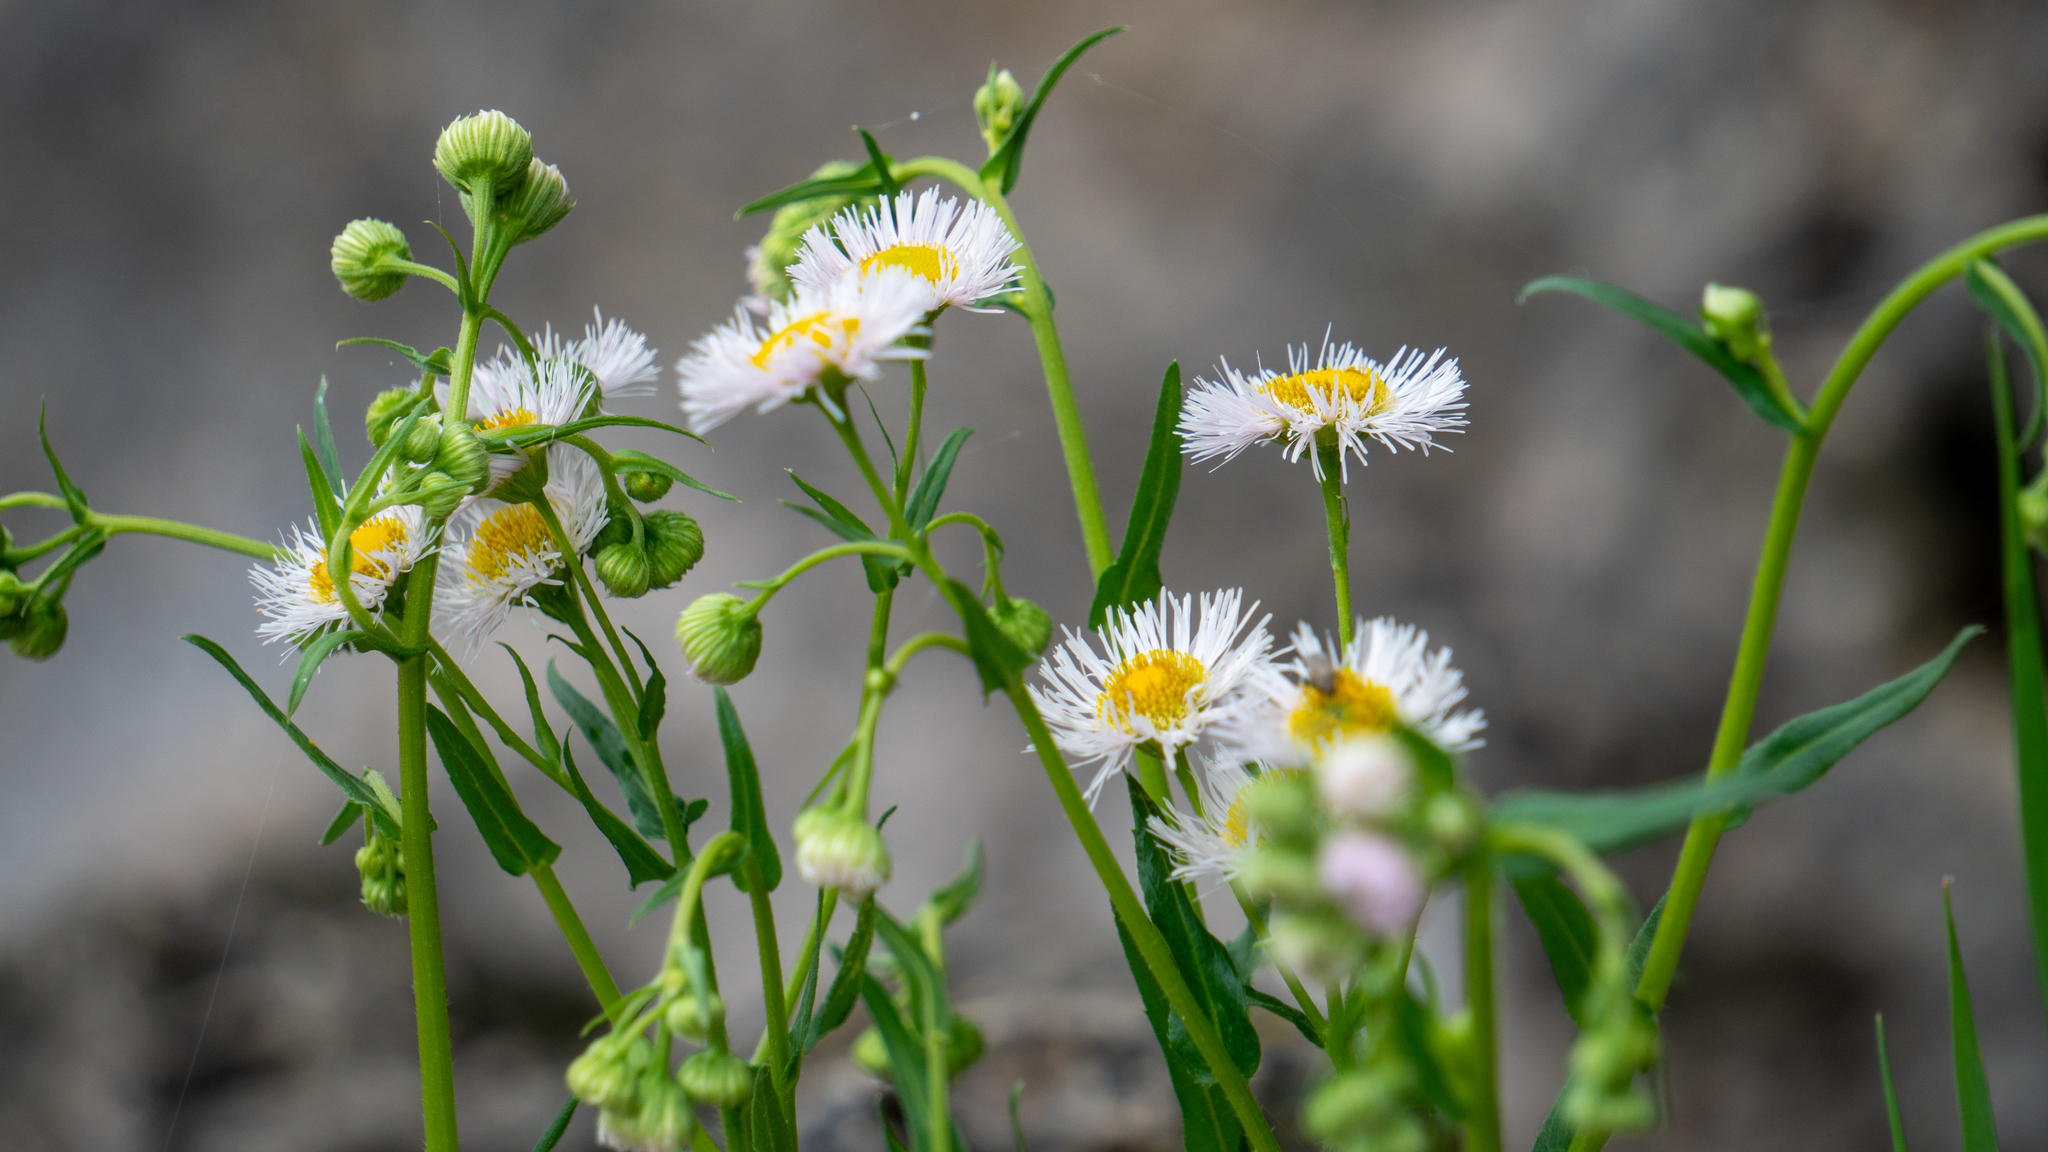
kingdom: Plantae
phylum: Tracheophyta
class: Magnoliopsida
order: Asterales
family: Asteraceae
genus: Erigeron
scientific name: Erigeron philadelphicus
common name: Robin's-plantain
